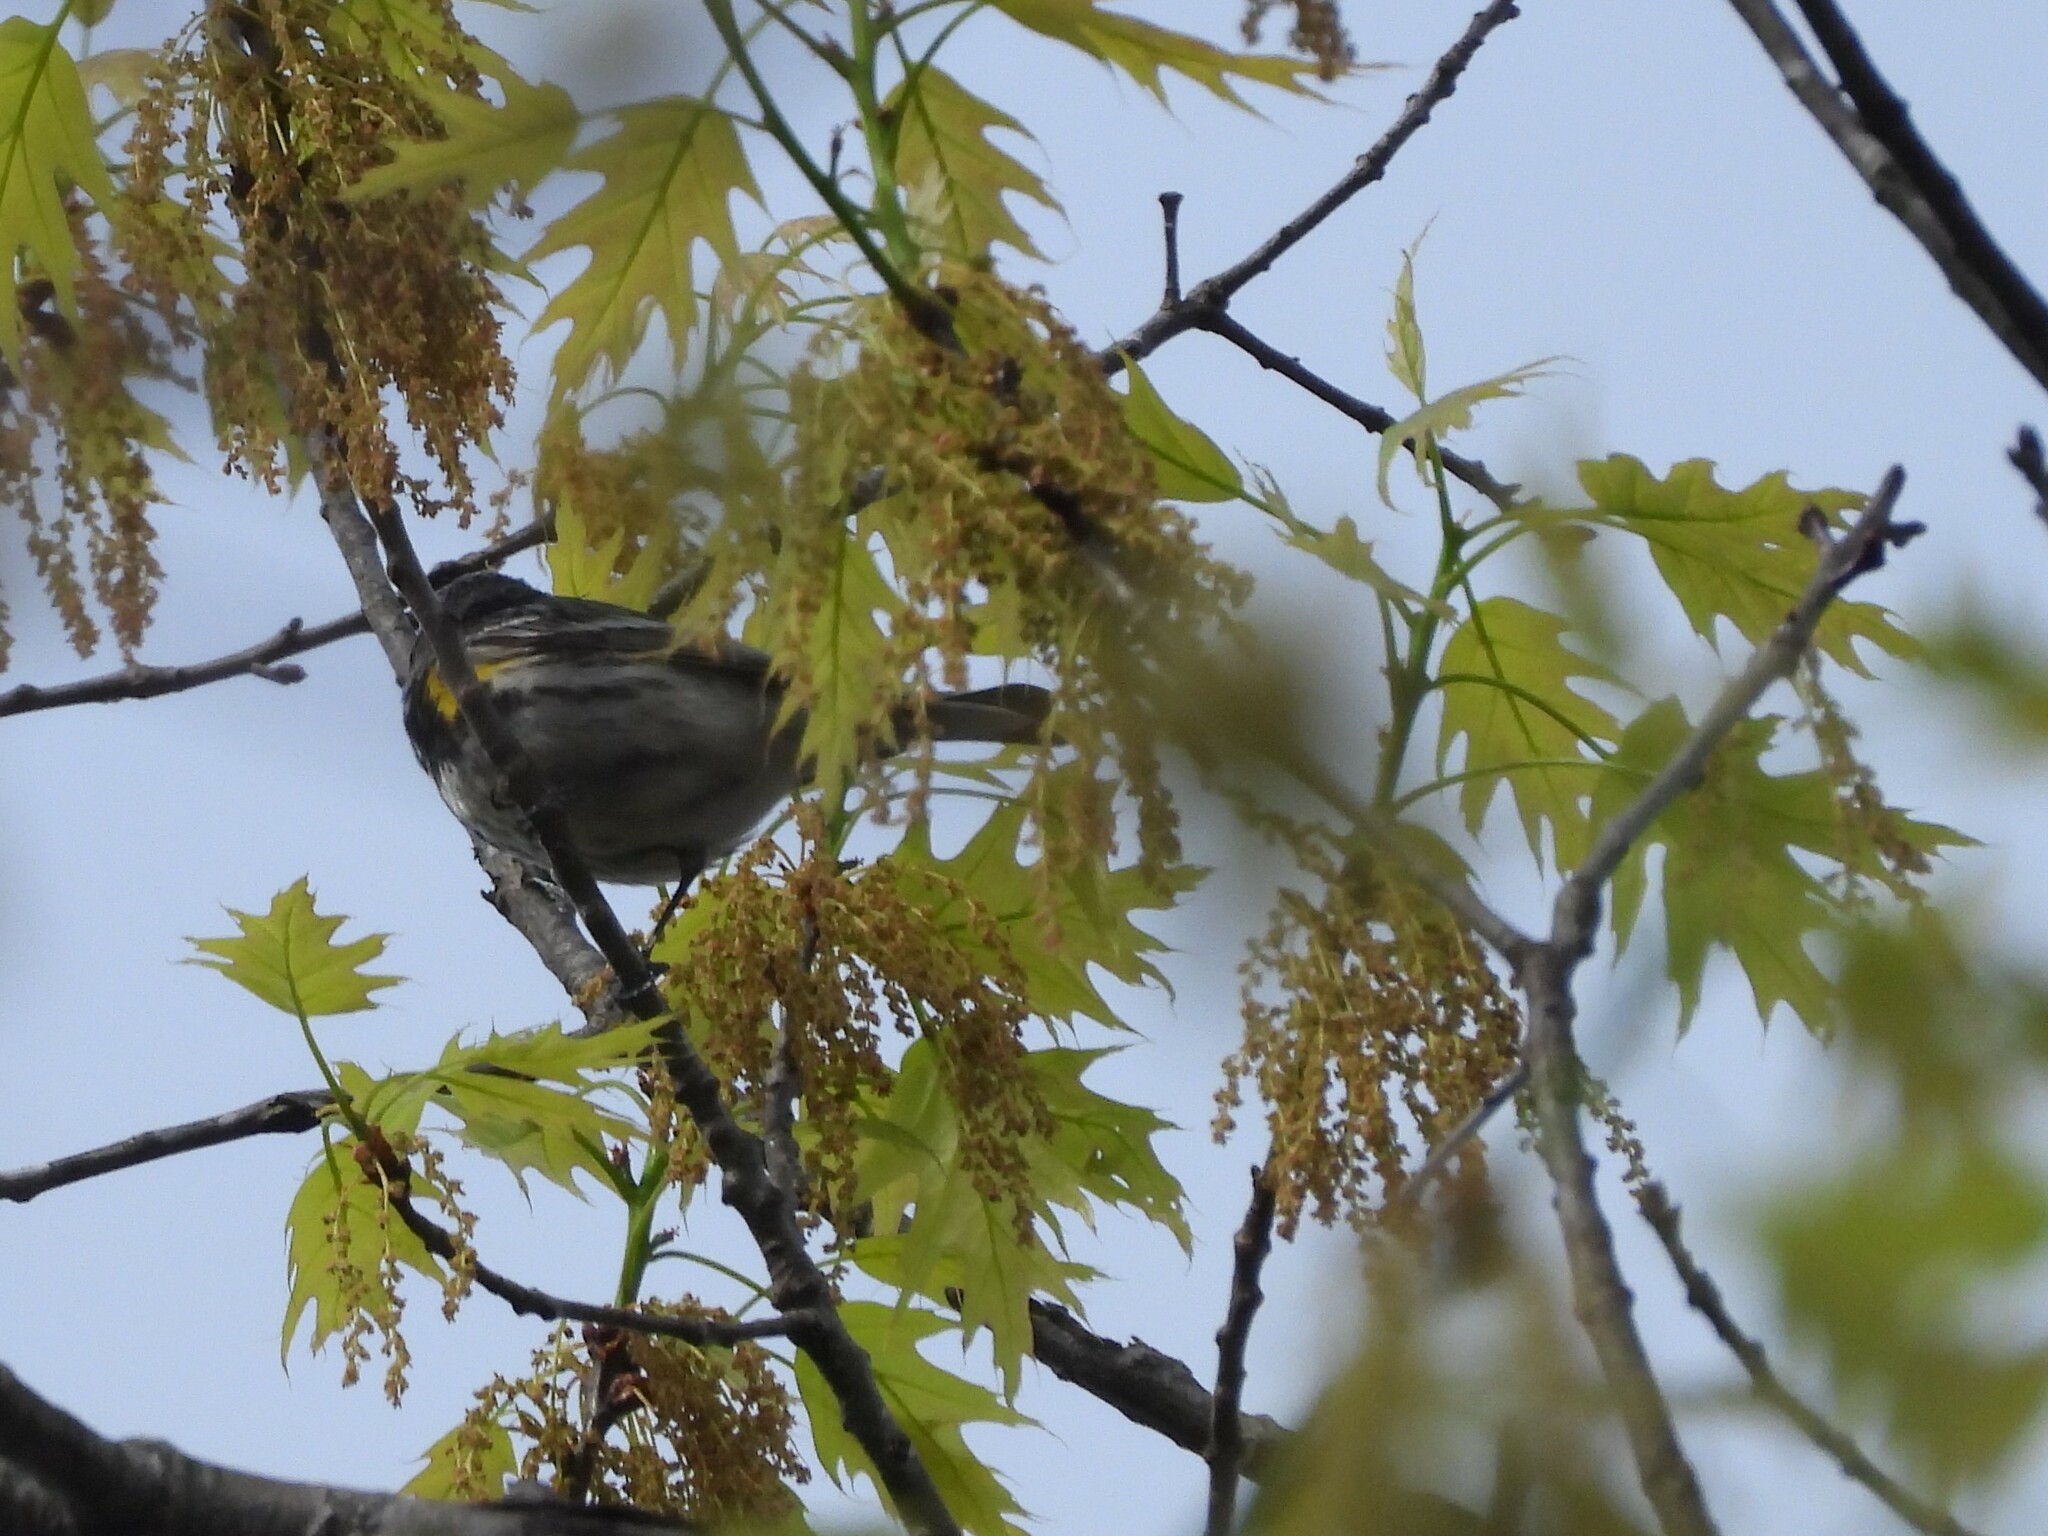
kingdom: Animalia
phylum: Chordata
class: Aves
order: Passeriformes
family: Parulidae
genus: Setophaga
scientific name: Setophaga coronata
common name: Myrtle warbler
